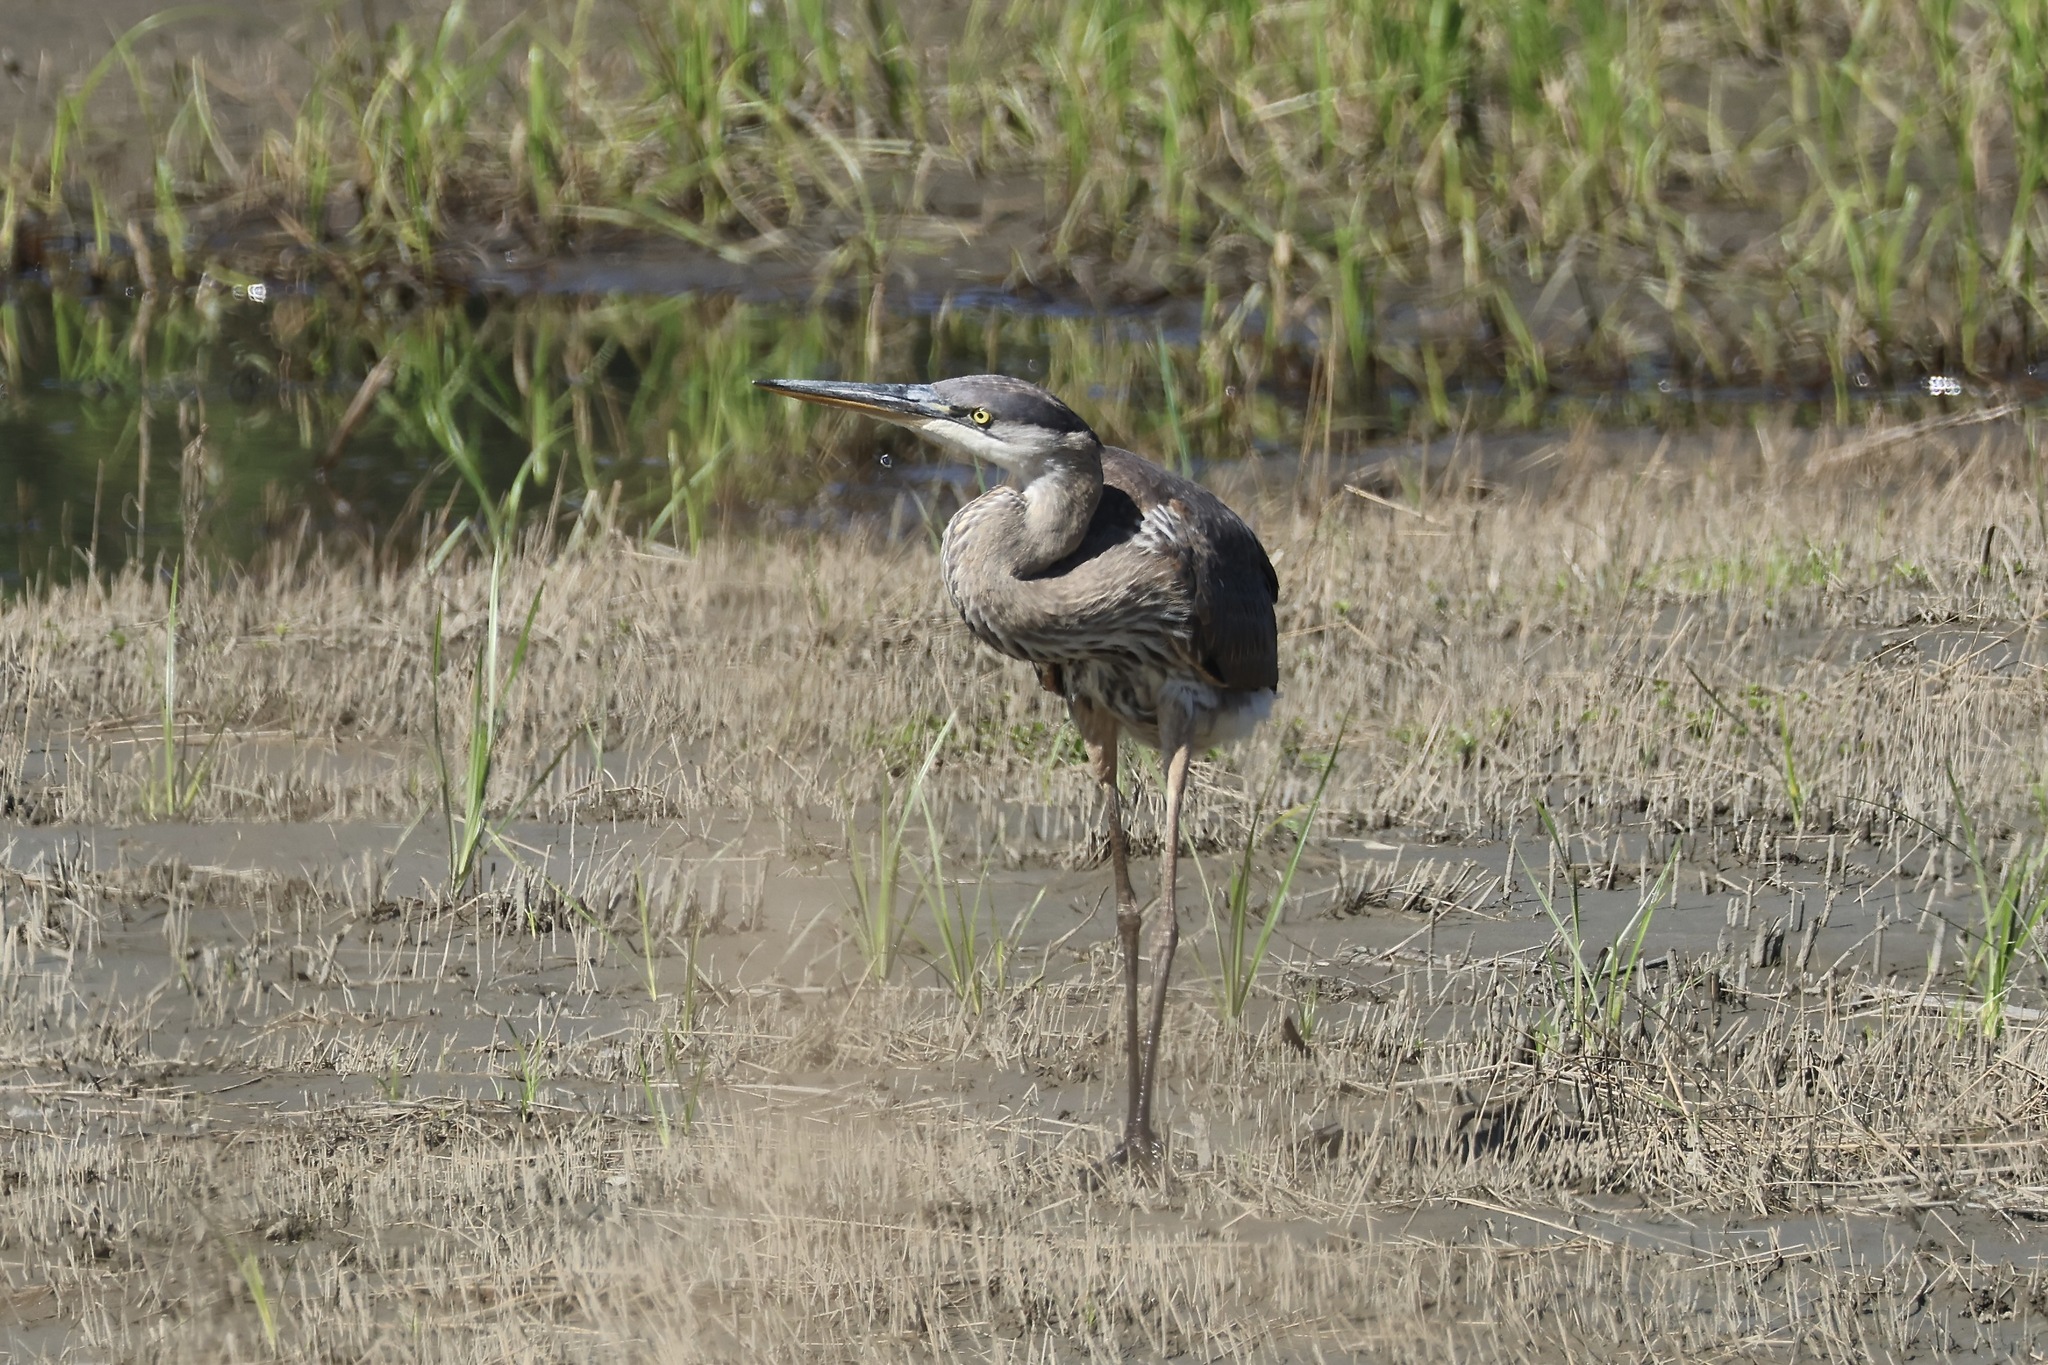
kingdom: Animalia
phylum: Chordata
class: Aves
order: Pelecaniformes
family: Ardeidae
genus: Ardea
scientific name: Ardea herodias
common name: Great blue heron
